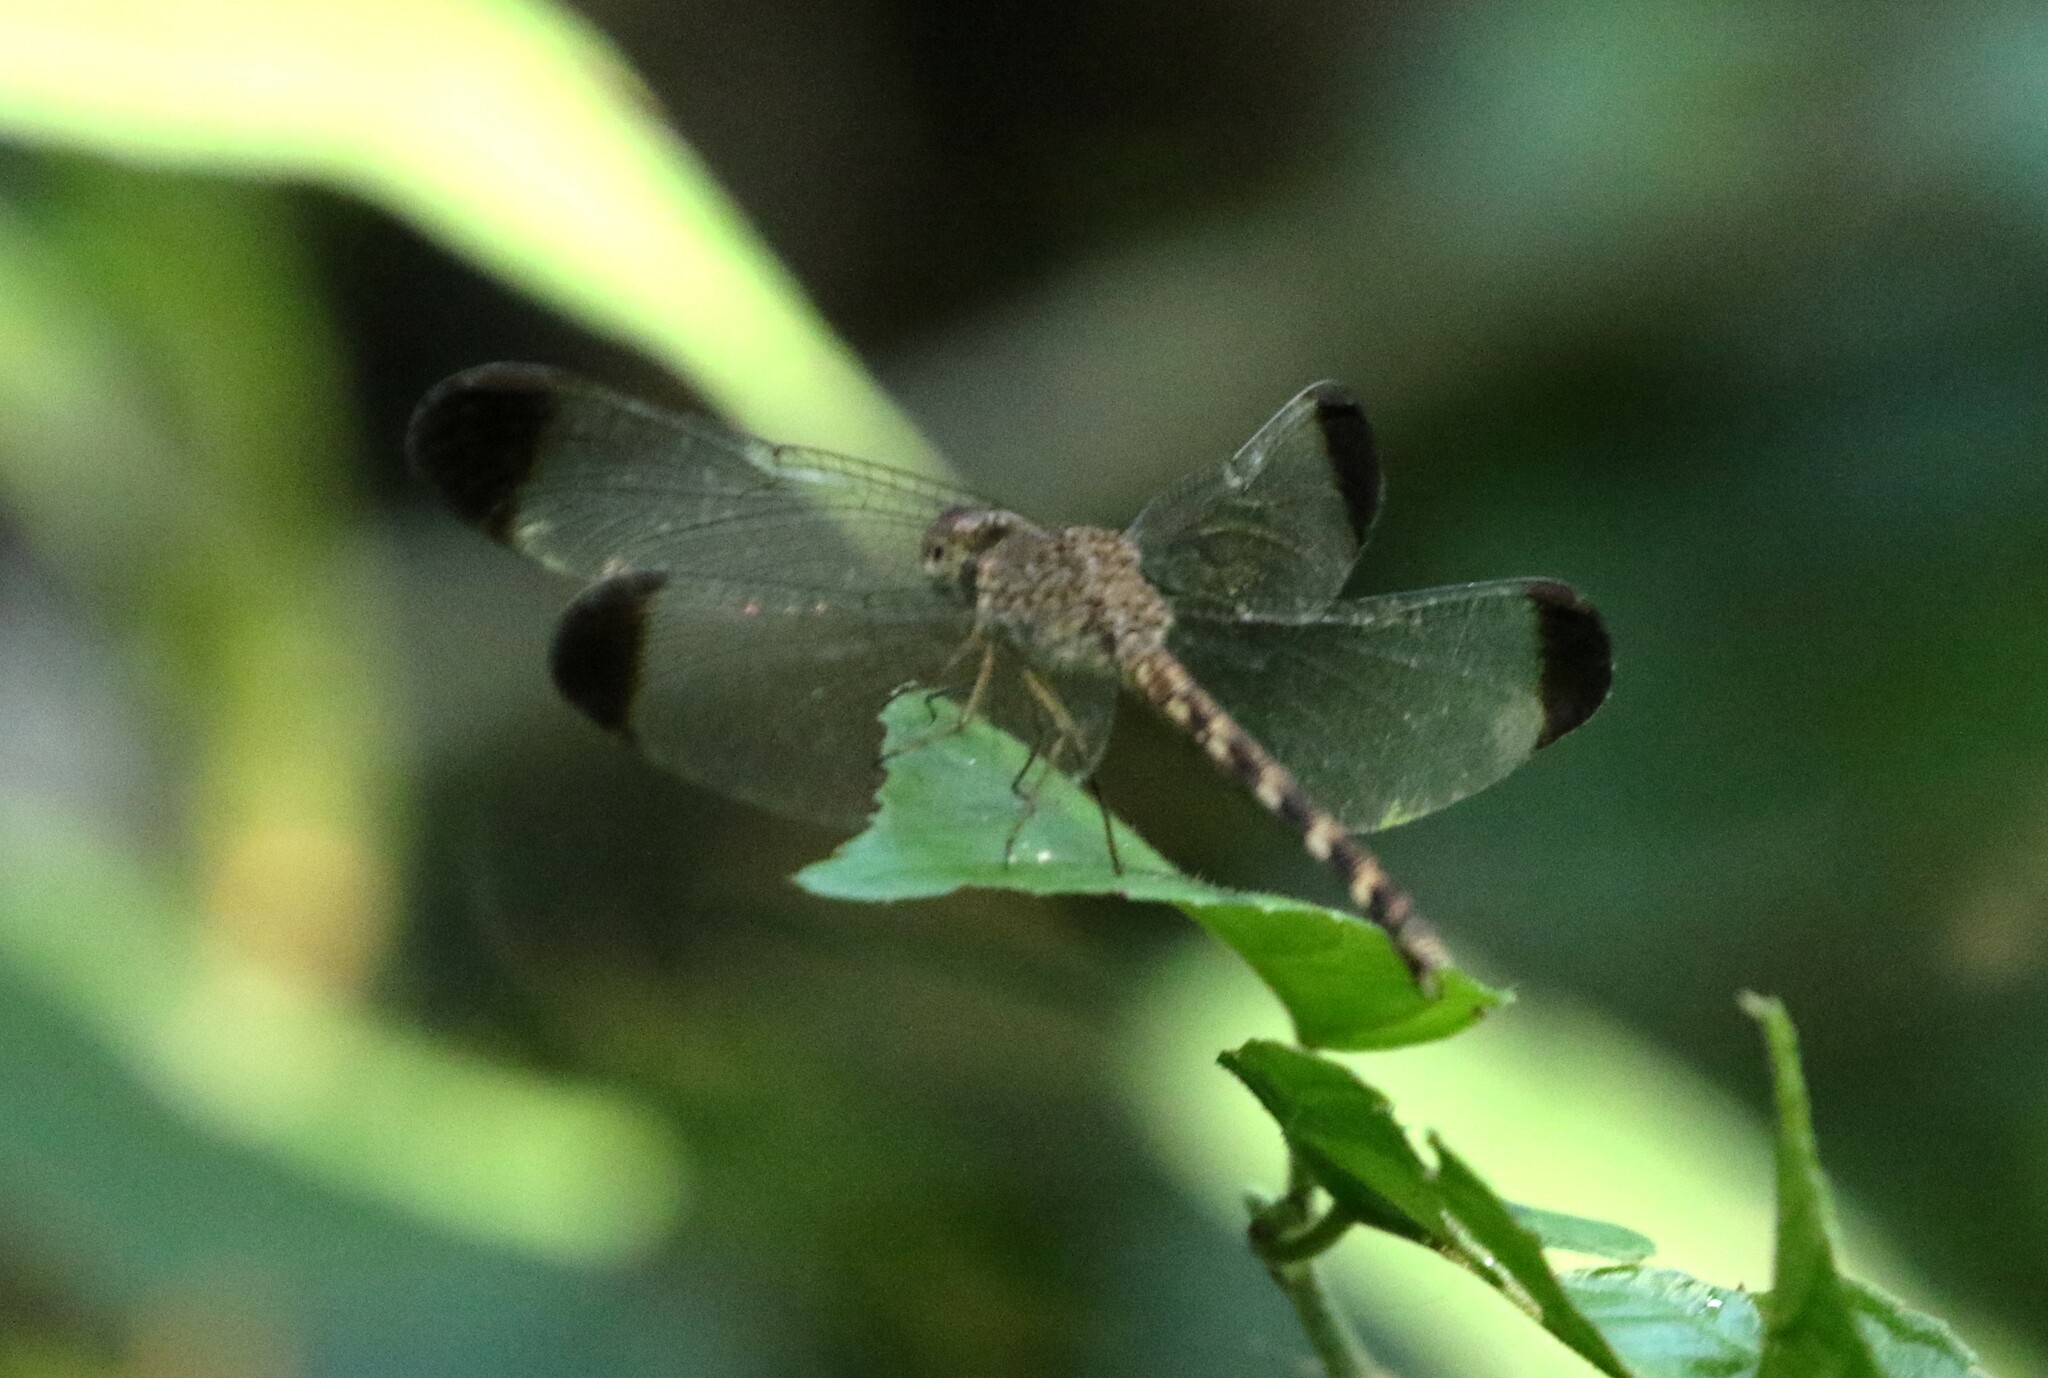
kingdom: Animalia
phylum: Arthropoda
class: Insecta
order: Odonata
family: Libellulidae
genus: Uracis
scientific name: Uracis imbuta
